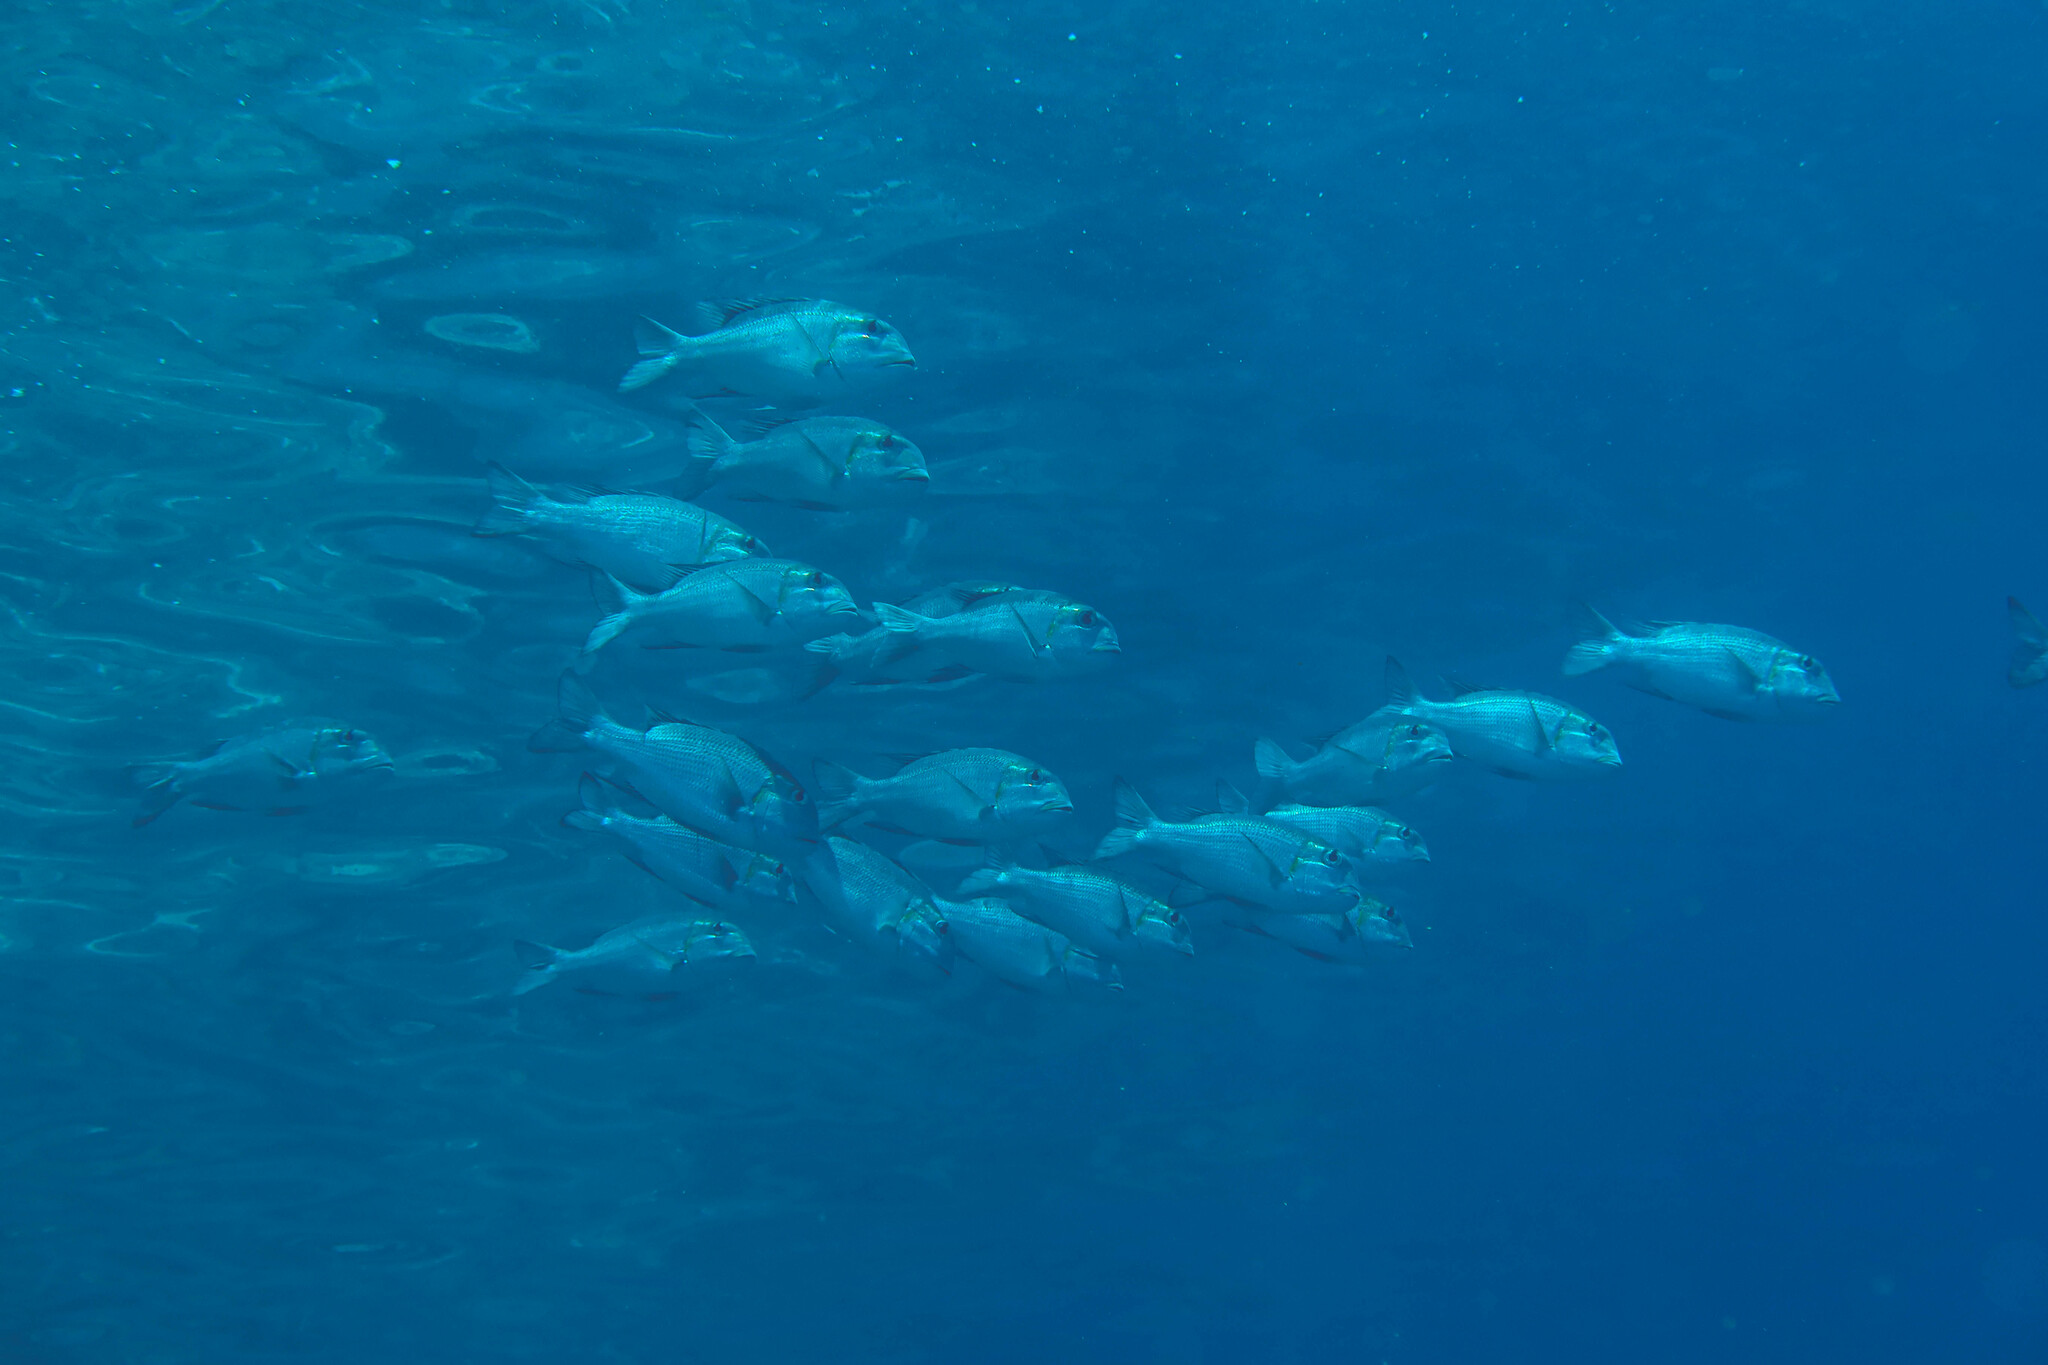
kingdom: Animalia
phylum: Chordata
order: Perciformes
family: Lethrinidae
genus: Monotaxis
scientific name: Monotaxis grandoculis
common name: Bigeye emperor
